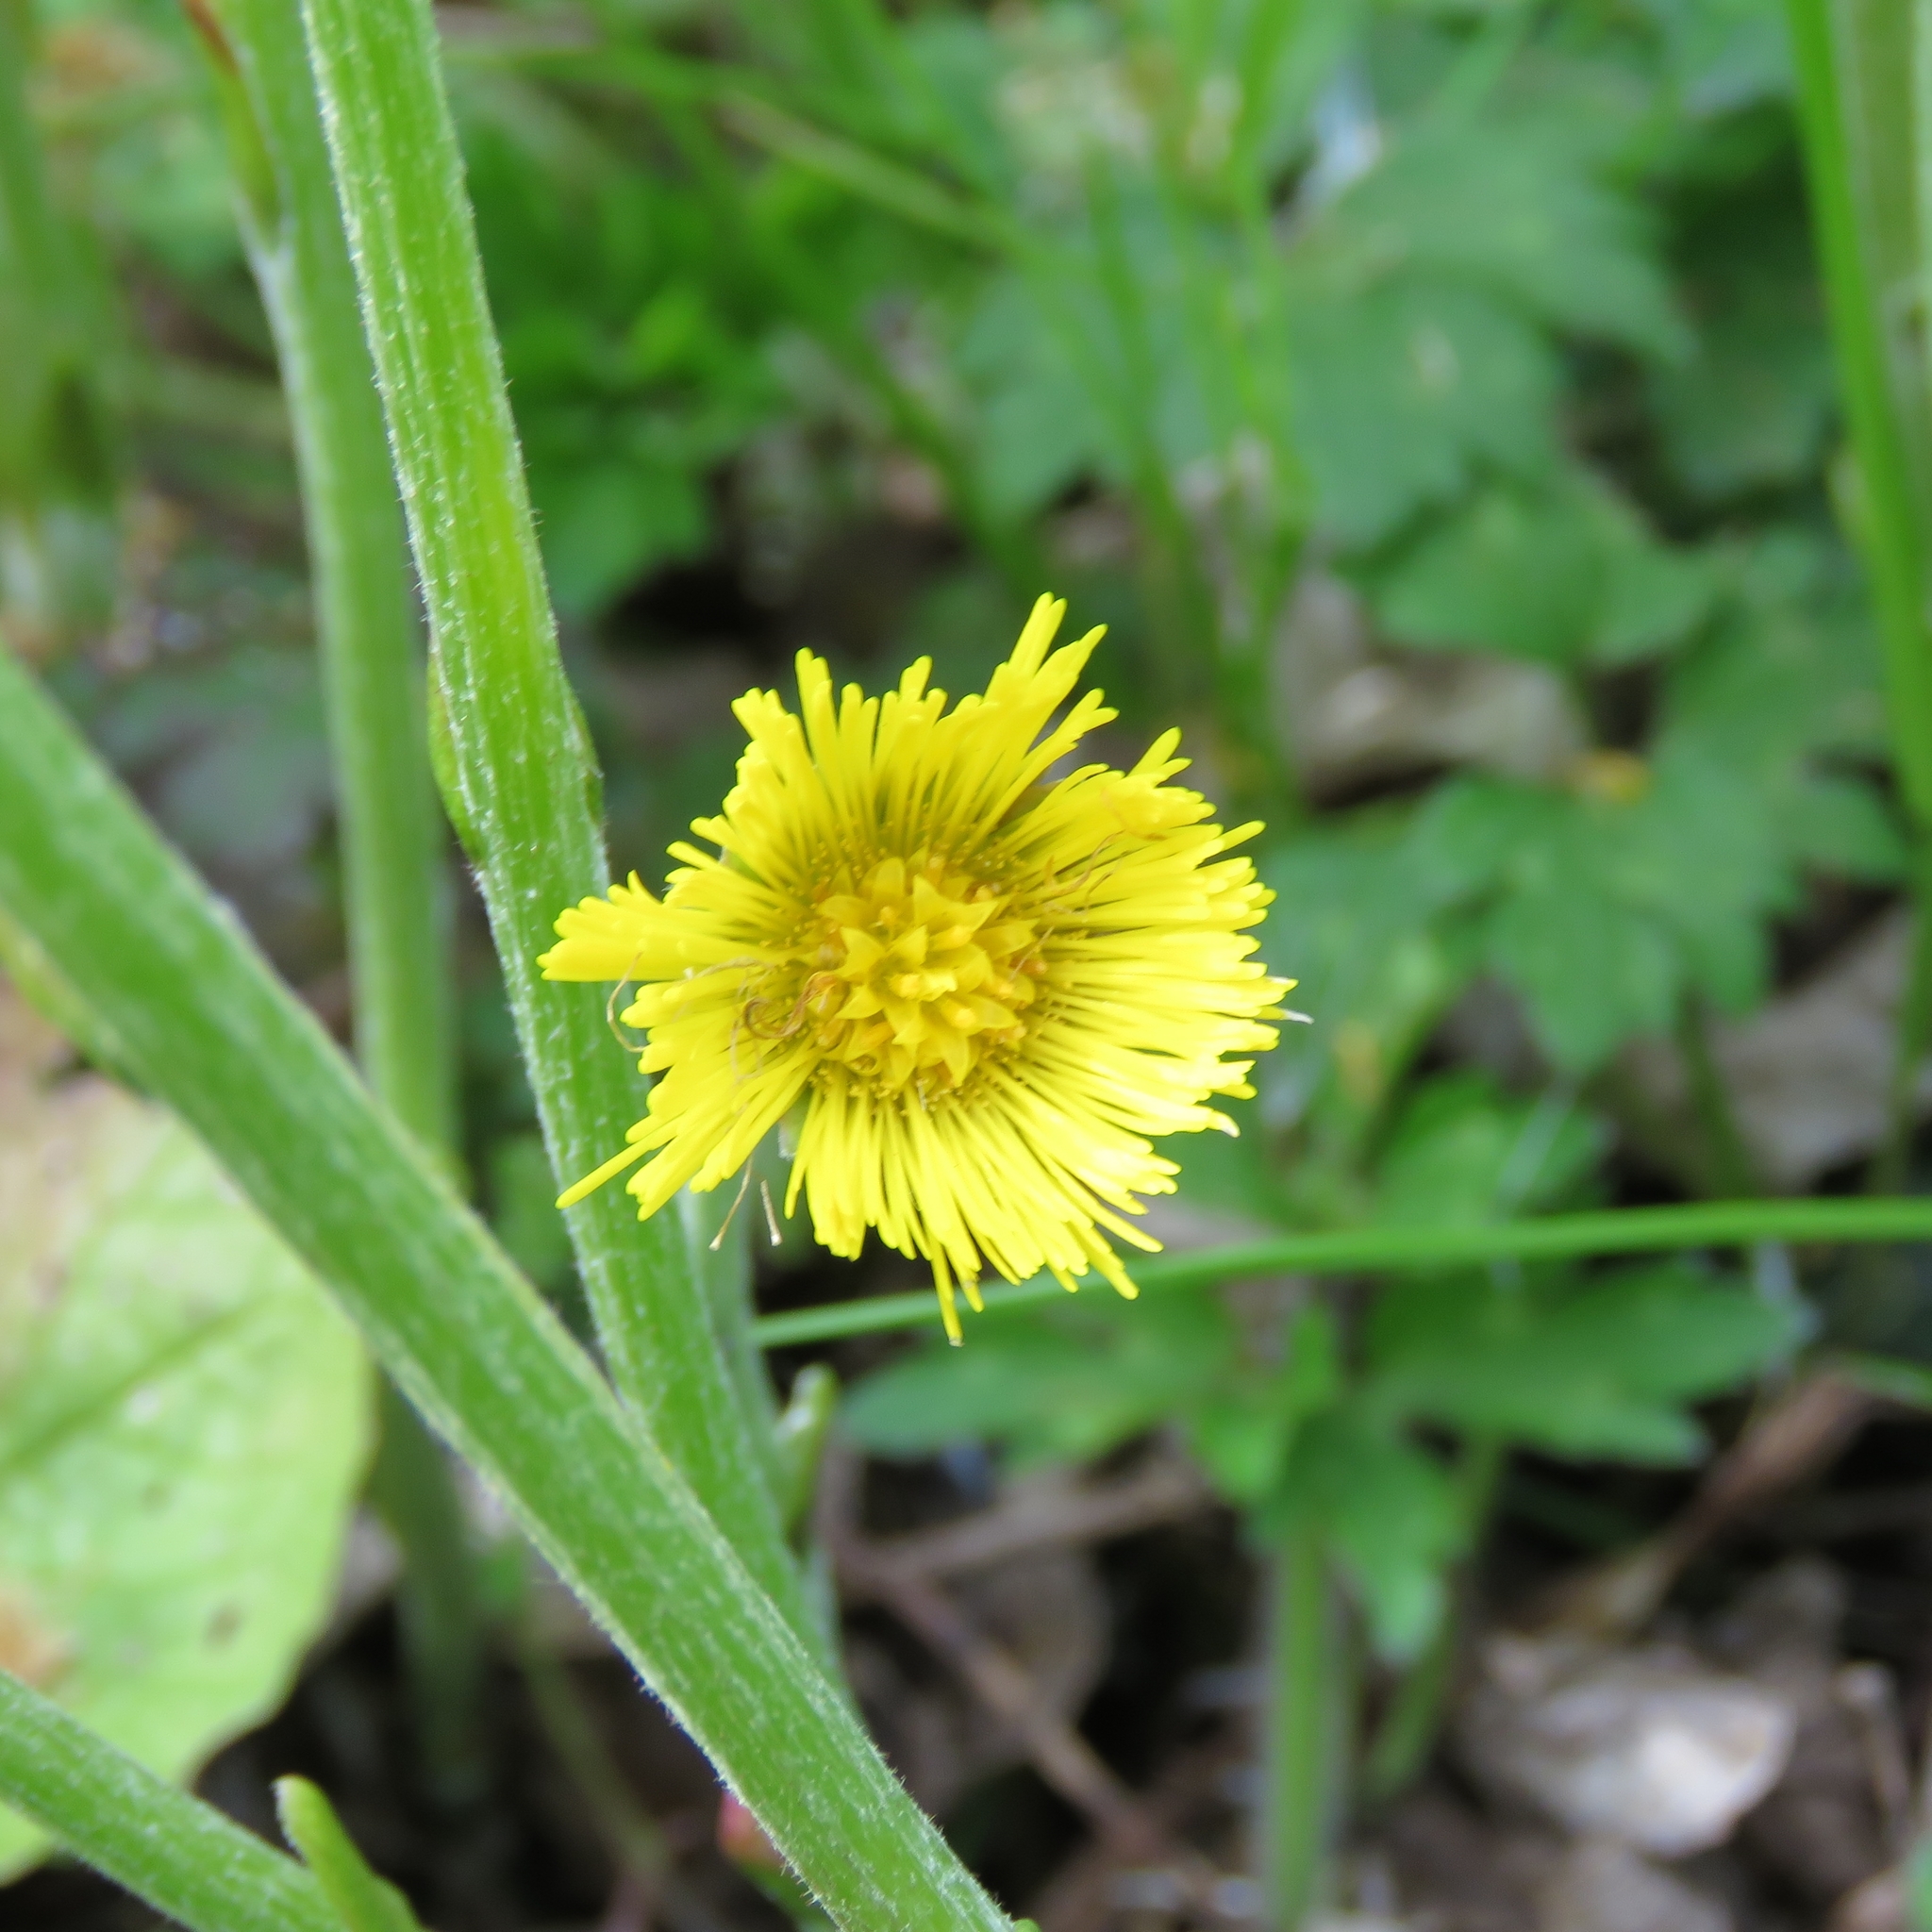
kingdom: Plantae
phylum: Tracheophyta
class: Magnoliopsida
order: Asterales
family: Asteraceae
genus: Tussilago
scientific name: Tussilago farfara
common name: Coltsfoot
